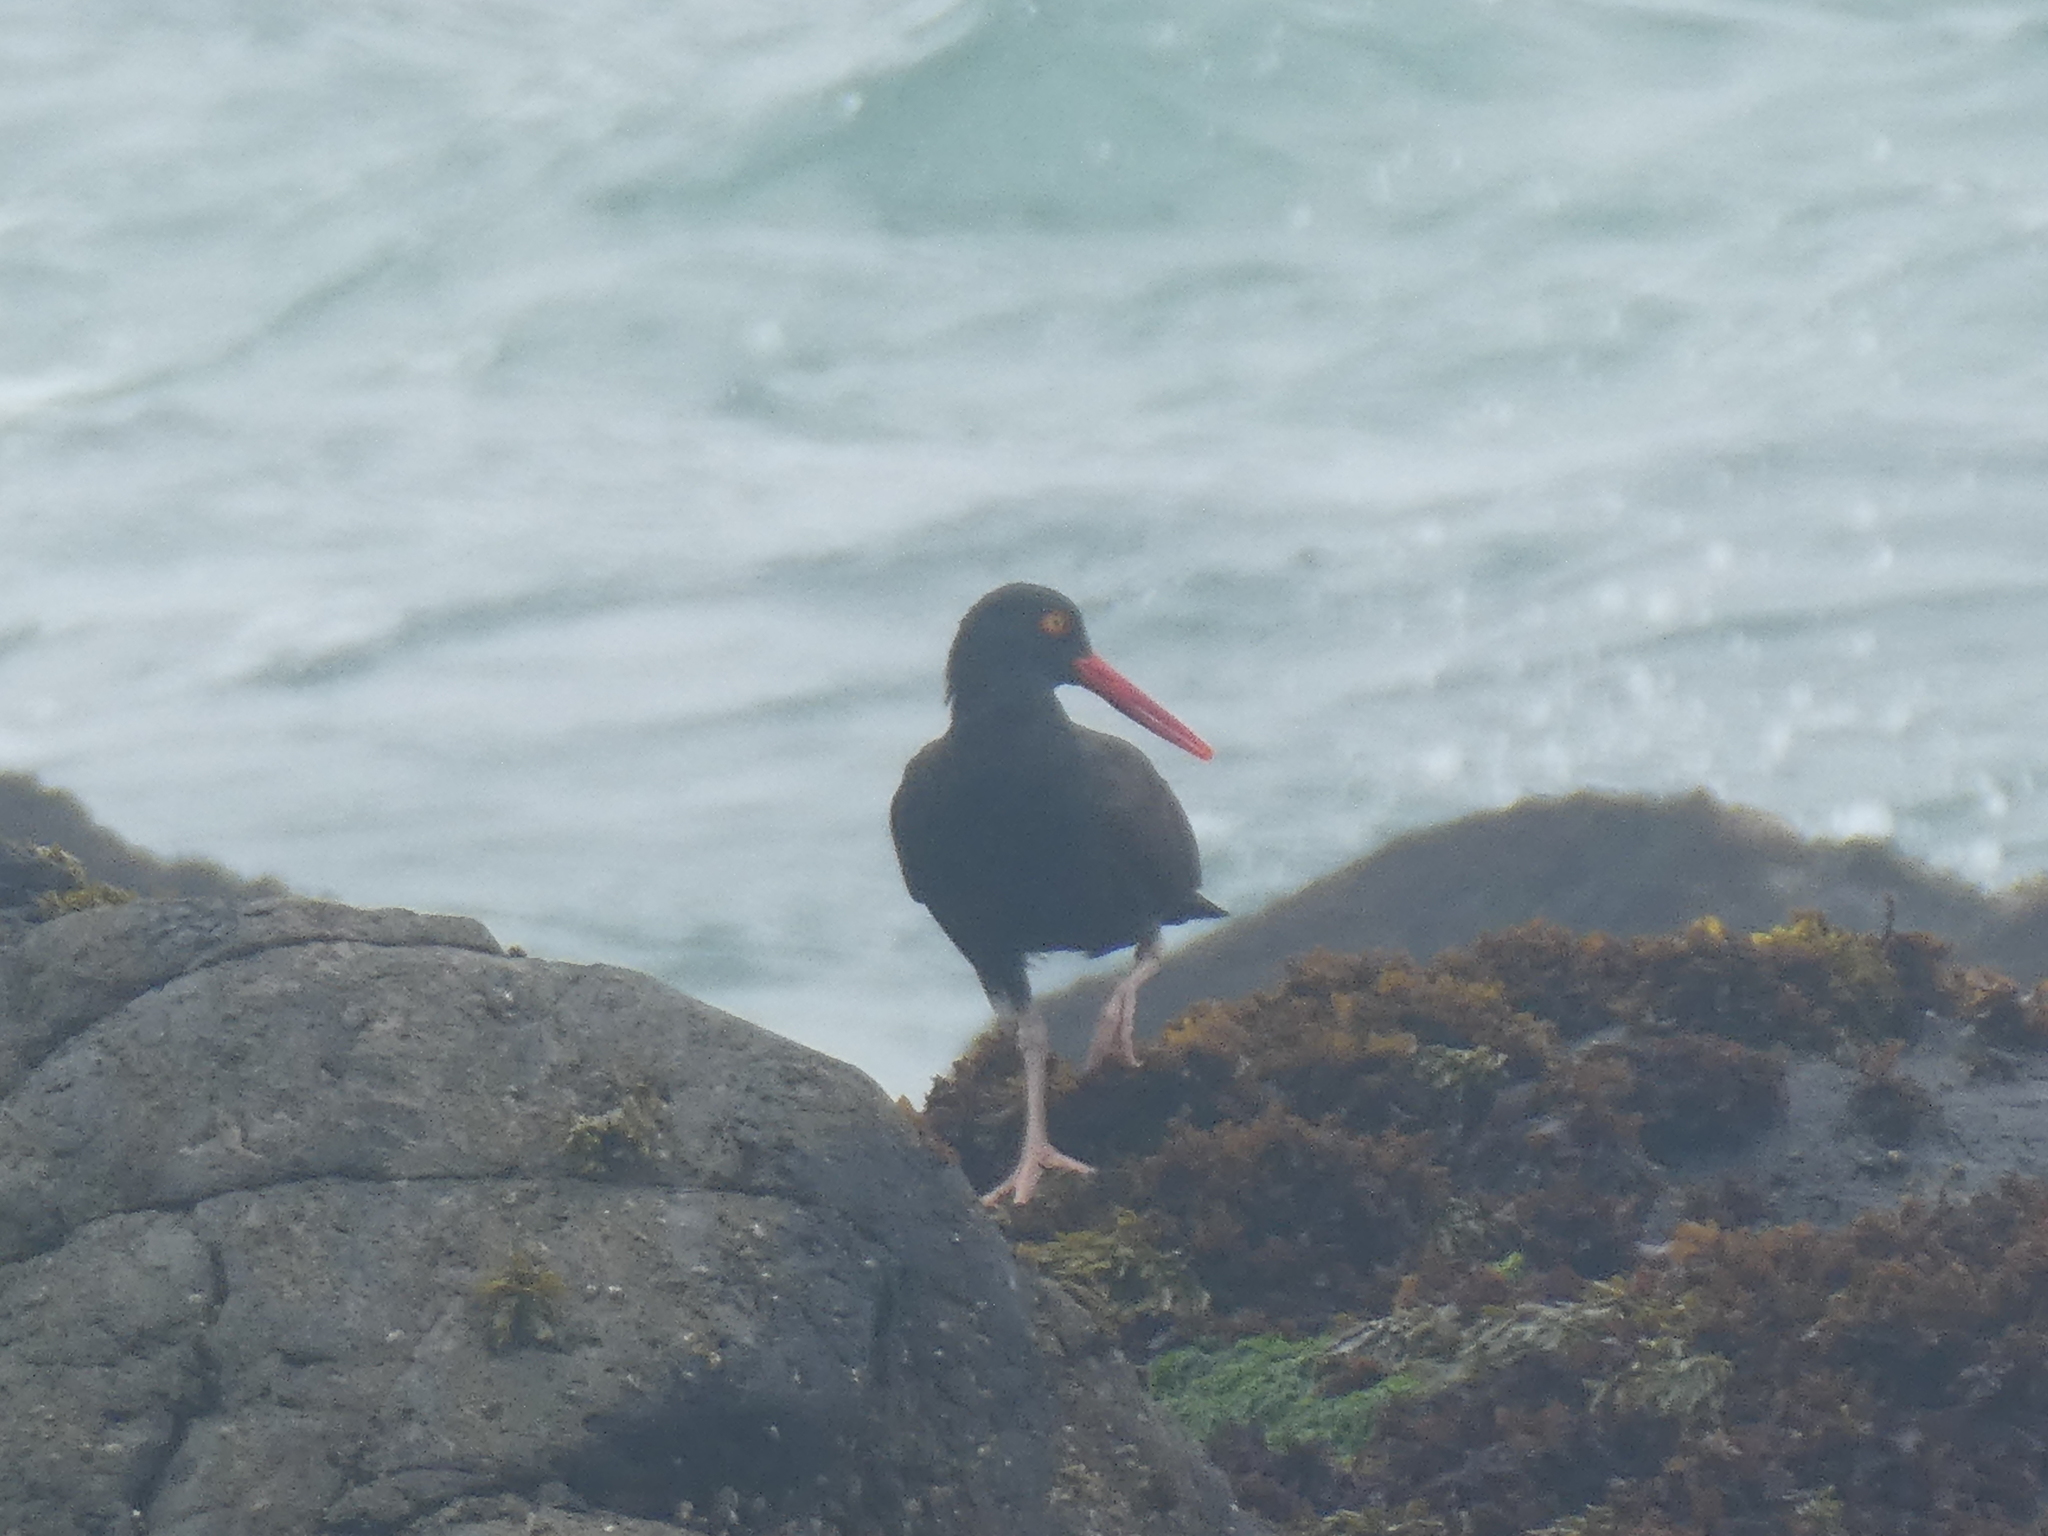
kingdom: Animalia
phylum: Chordata
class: Aves
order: Charadriiformes
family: Haematopodidae
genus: Haematopus
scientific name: Haematopus bachmani
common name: Black oystercatcher
